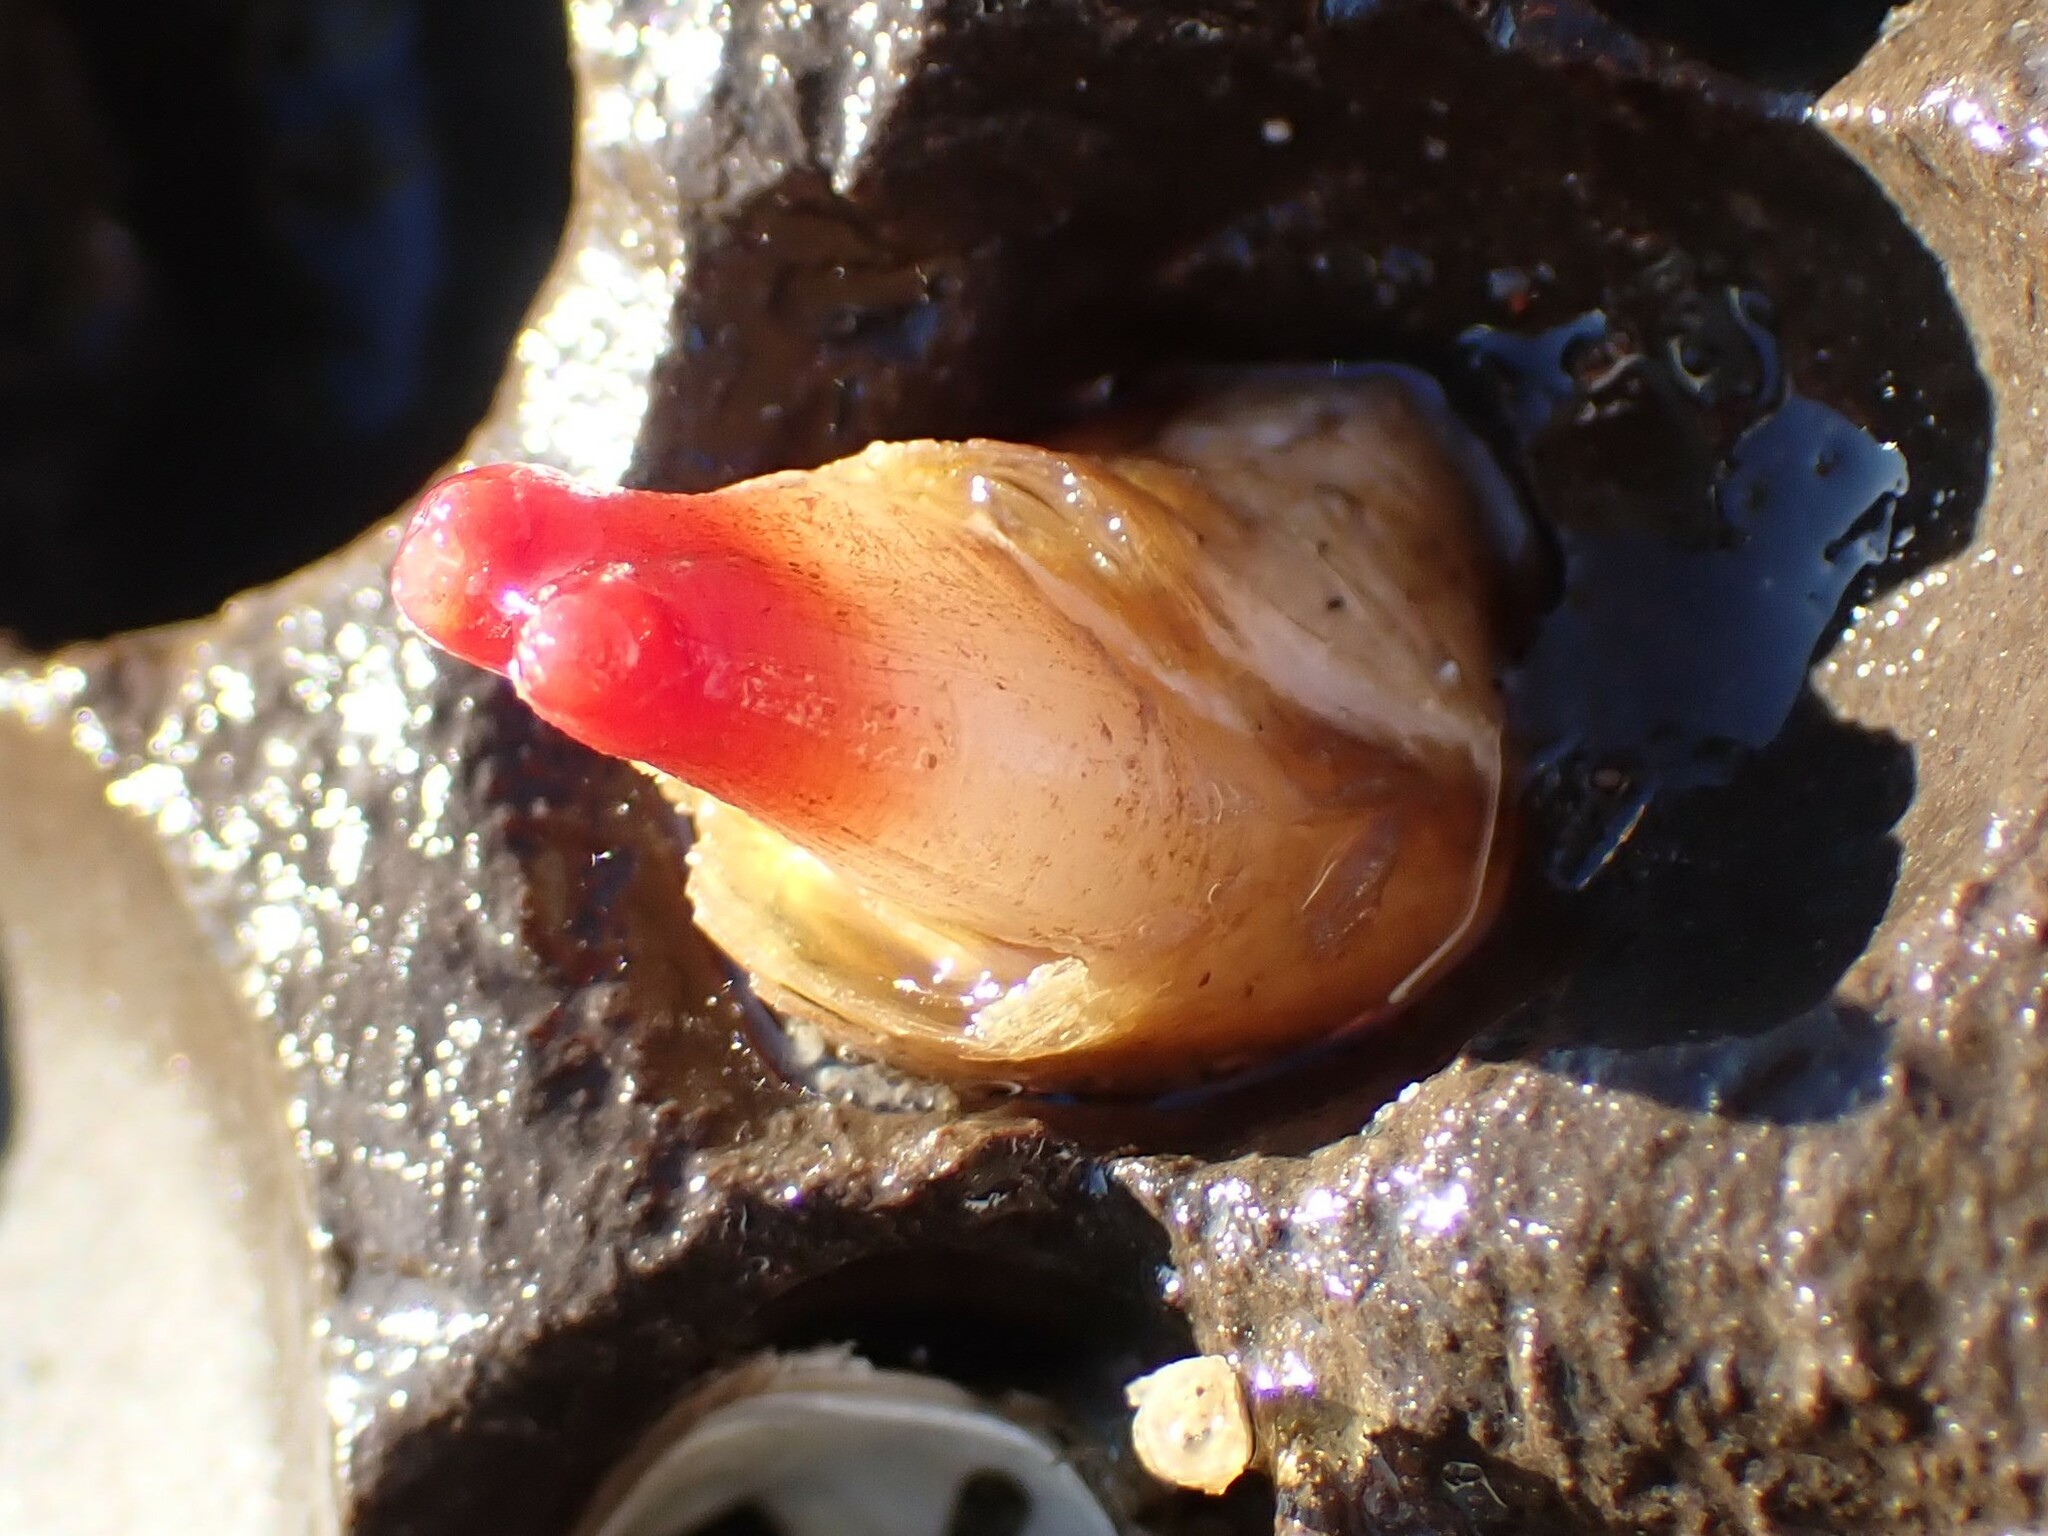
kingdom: Animalia
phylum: Mollusca
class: Bivalvia
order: Adapedonta
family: Hiatellidae
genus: Hiatella
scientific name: Hiatella arctica
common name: Arctic hiatella
